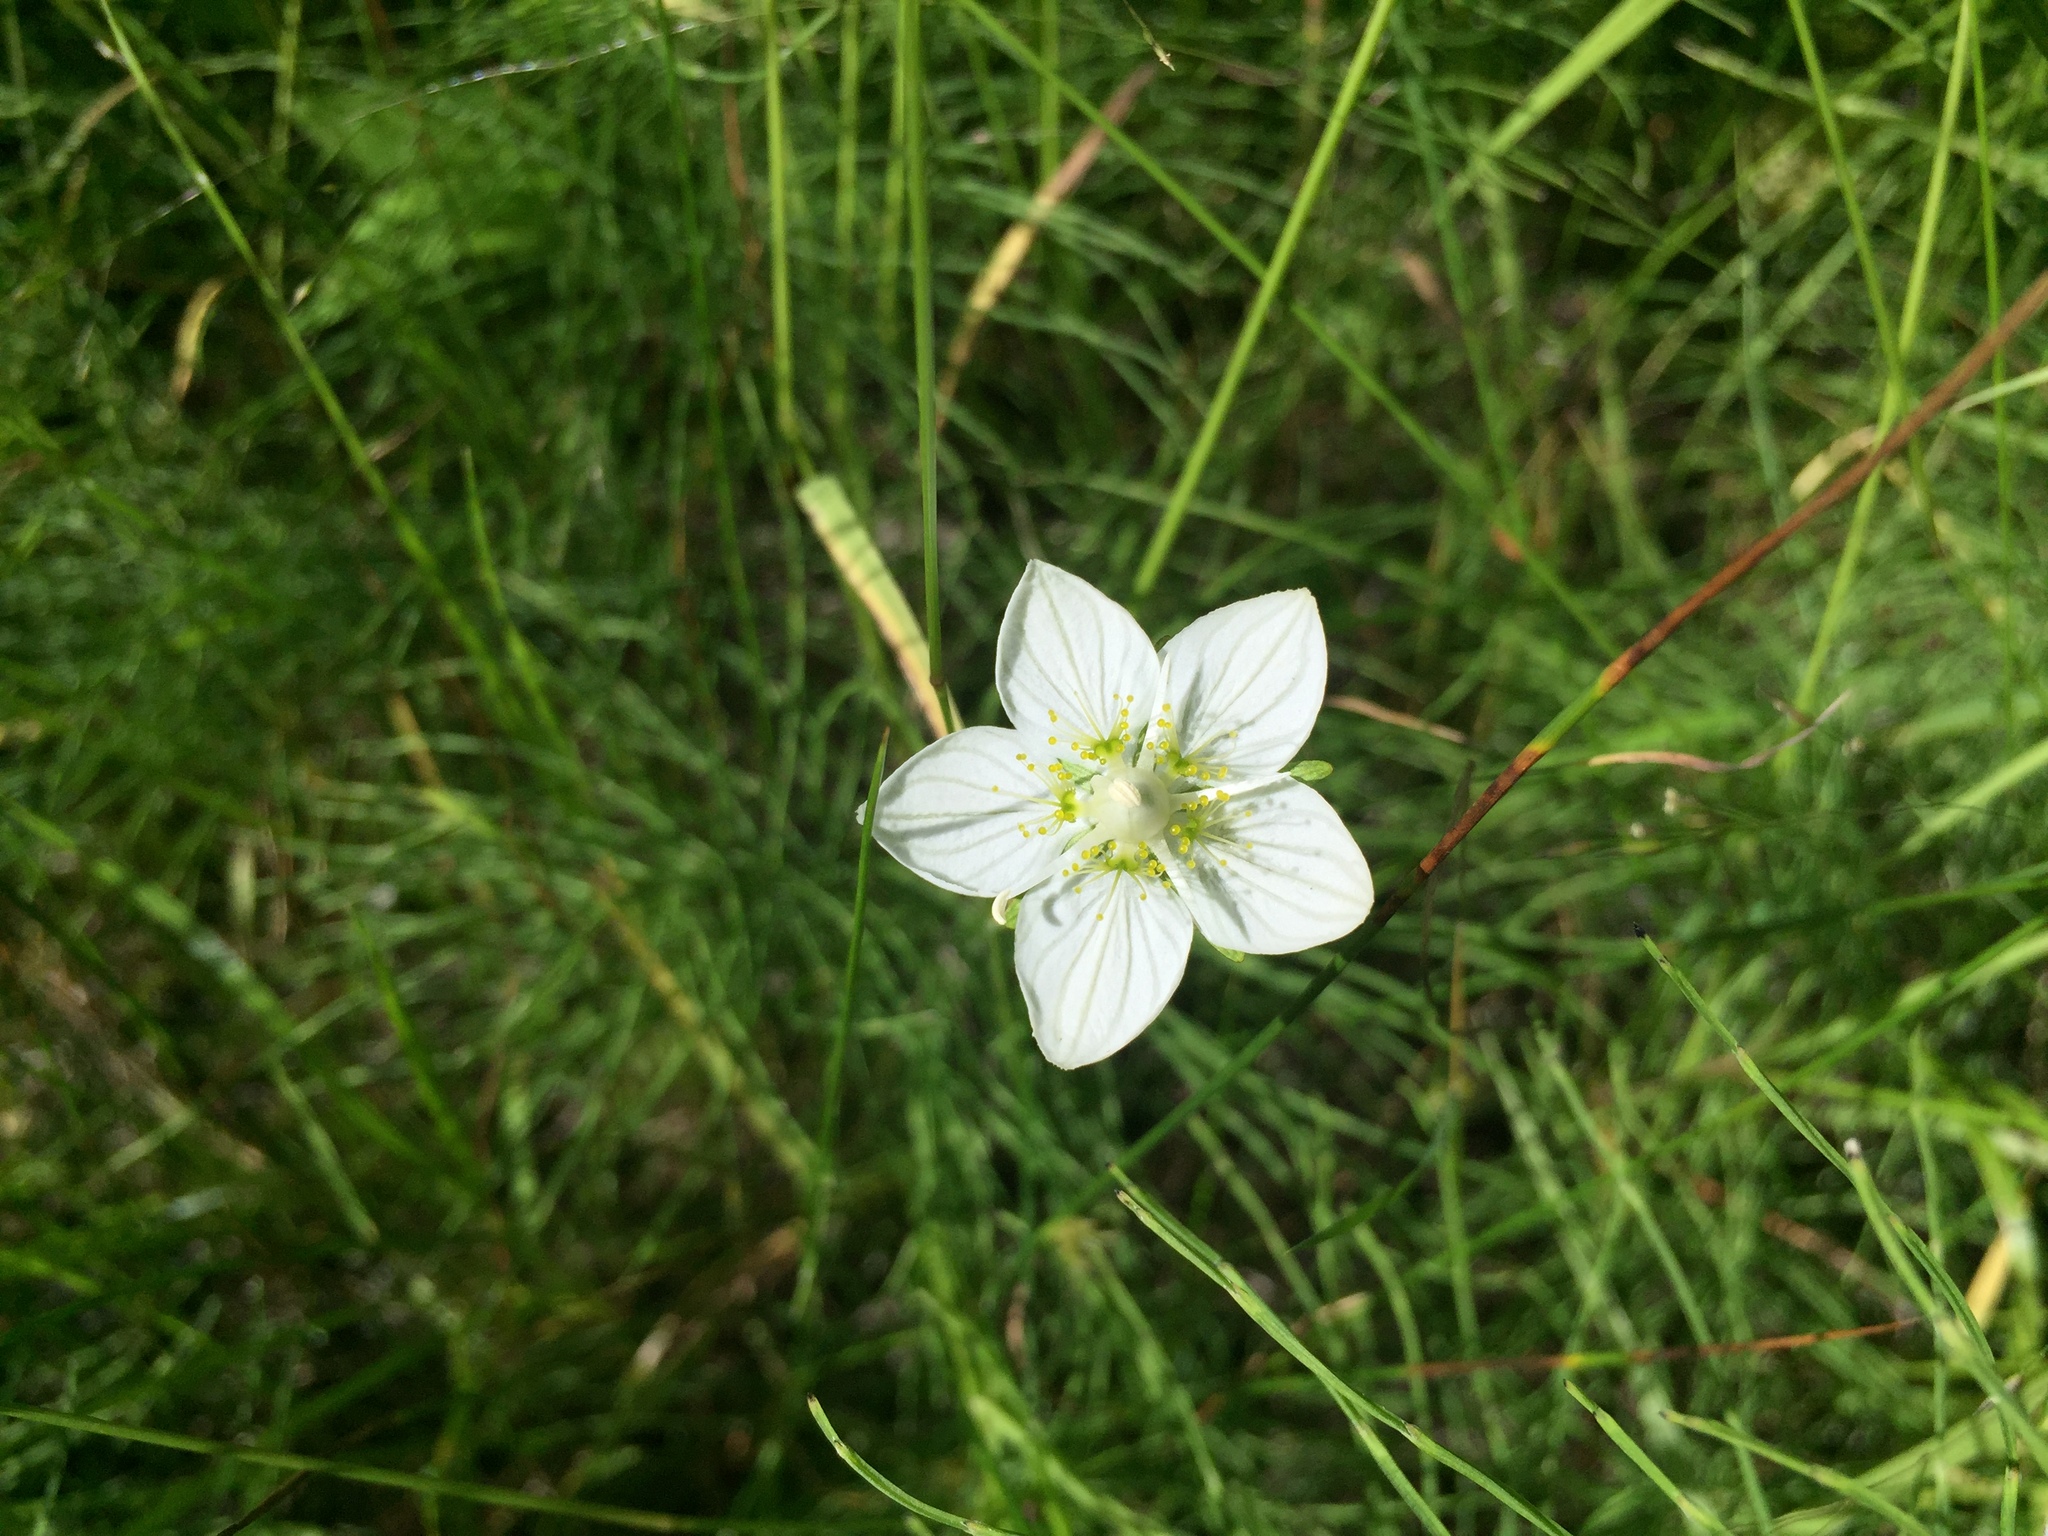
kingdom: Plantae
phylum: Tracheophyta
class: Magnoliopsida
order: Celastrales
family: Parnassiaceae
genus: Parnassia
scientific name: Parnassia palustris
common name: Grass-of-parnassus
